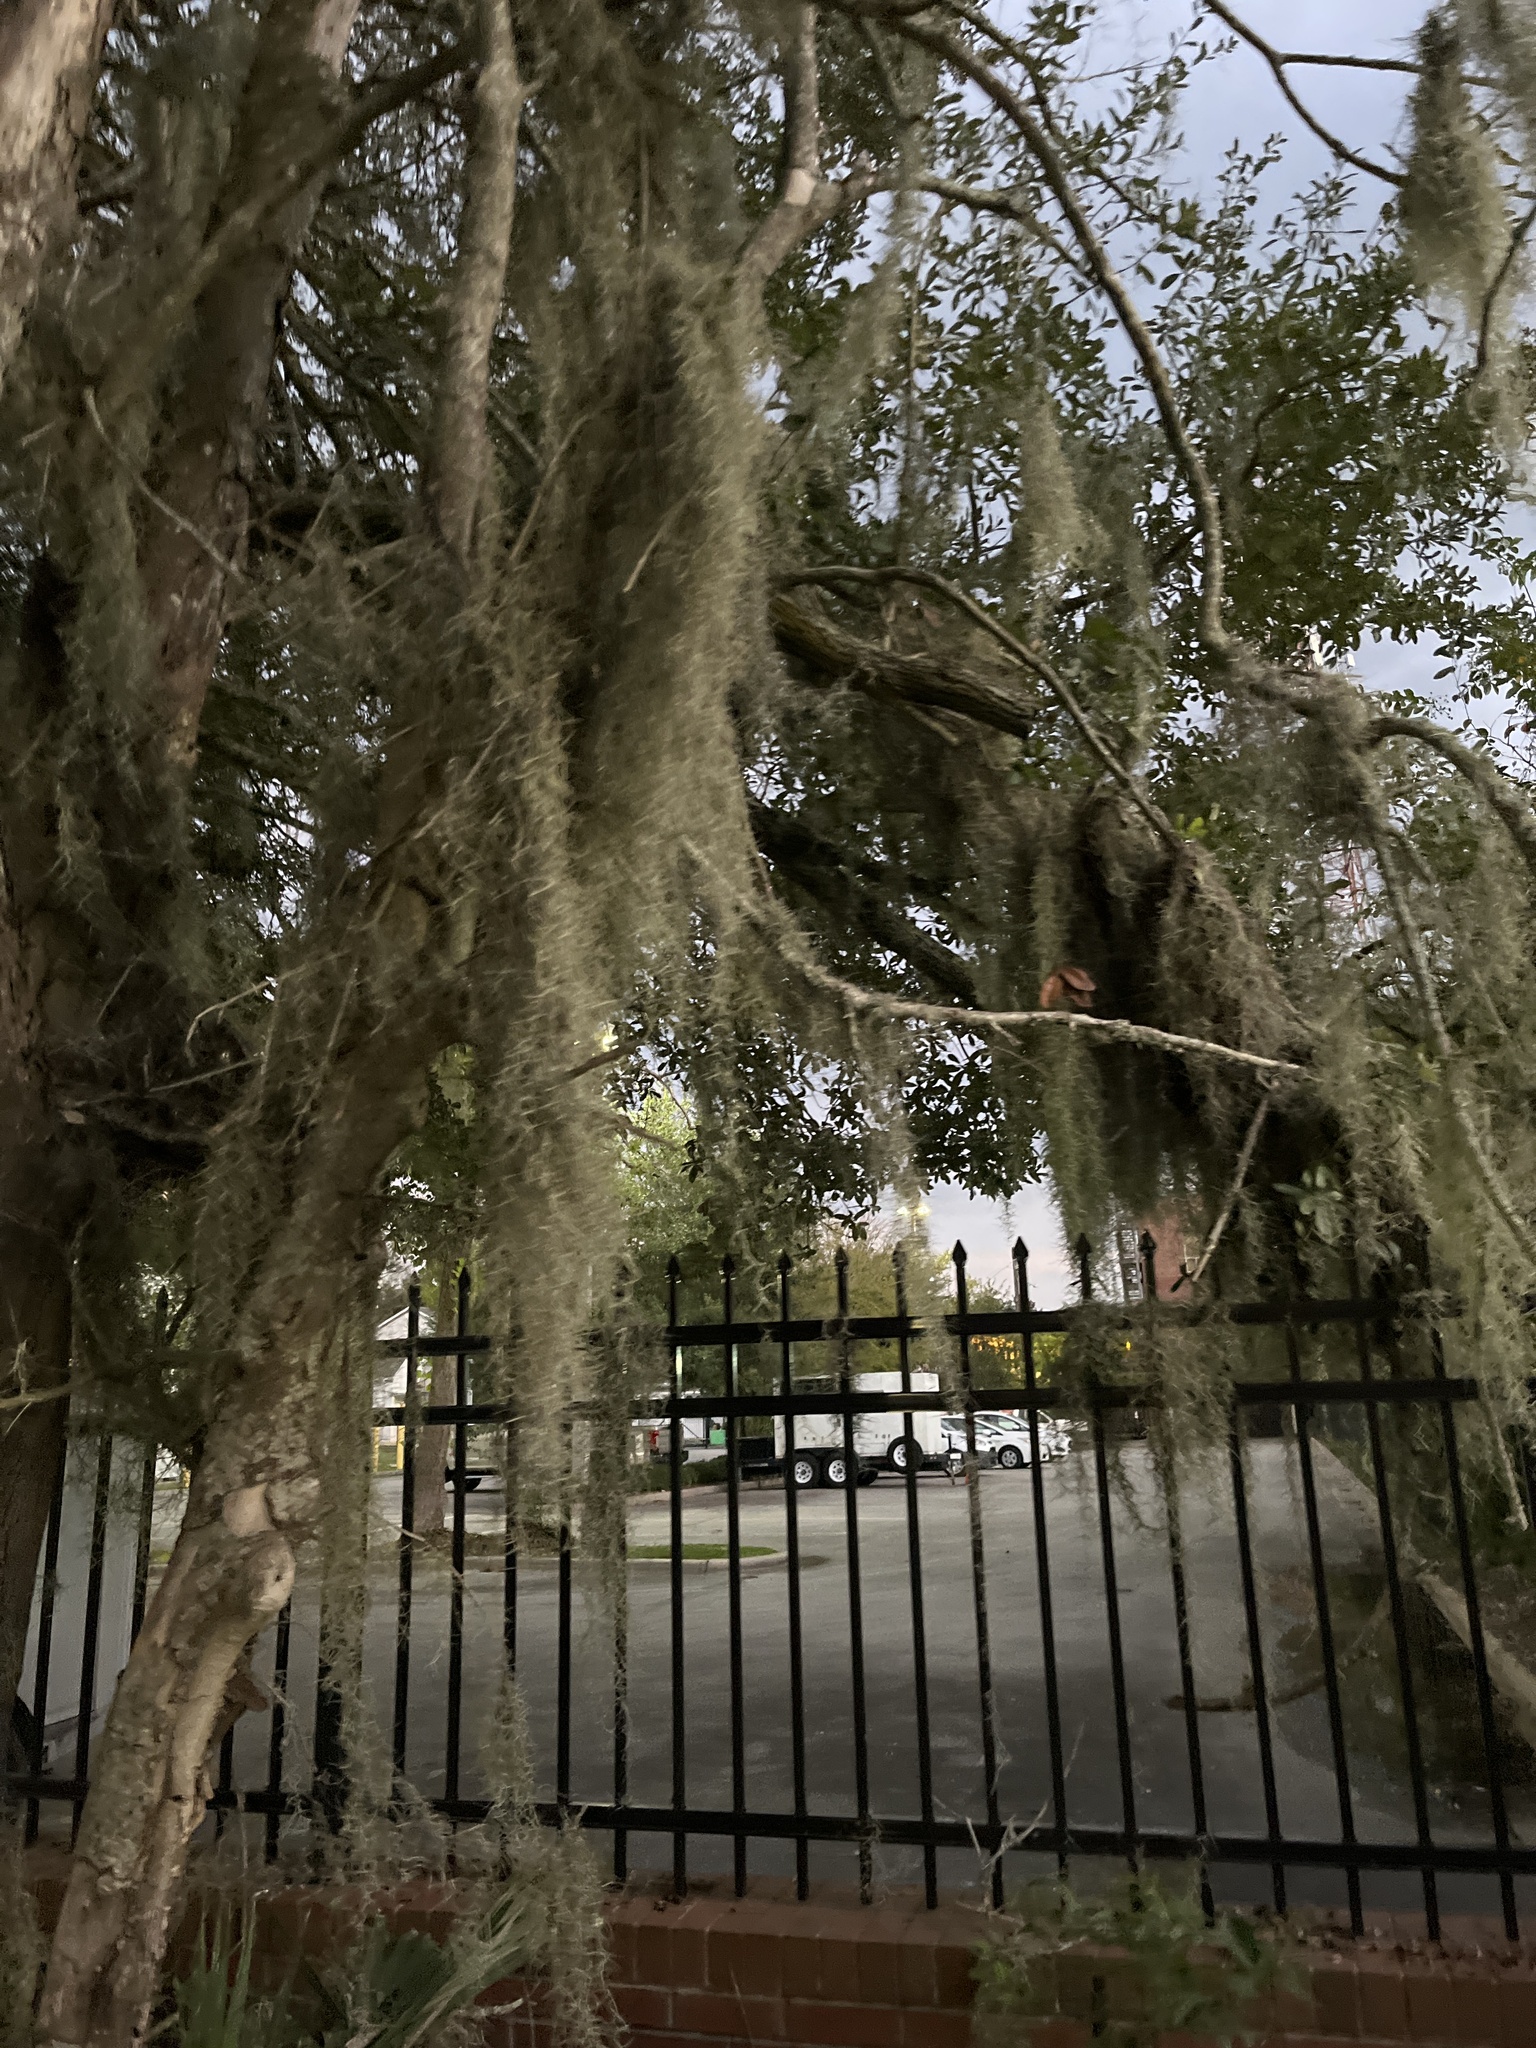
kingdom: Plantae
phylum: Tracheophyta
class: Liliopsida
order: Poales
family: Bromeliaceae
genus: Tillandsia
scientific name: Tillandsia usneoides
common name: Spanish moss
